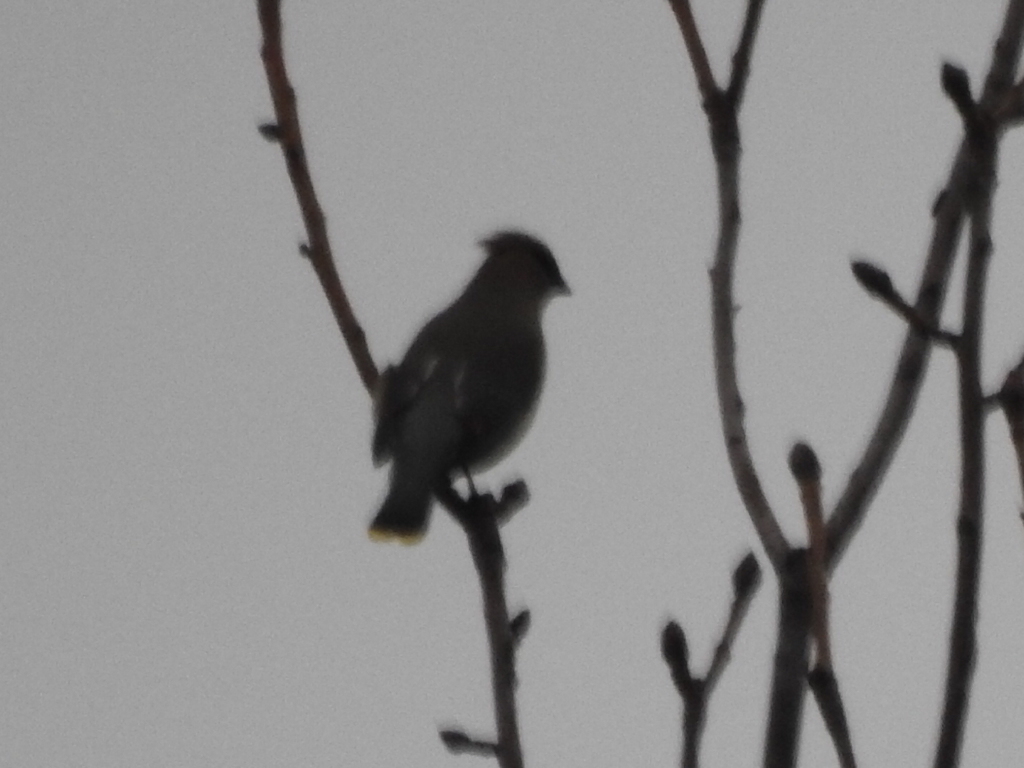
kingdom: Animalia
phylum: Chordata
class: Aves
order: Passeriformes
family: Bombycillidae
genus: Bombycilla
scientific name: Bombycilla cedrorum
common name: Cedar waxwing
